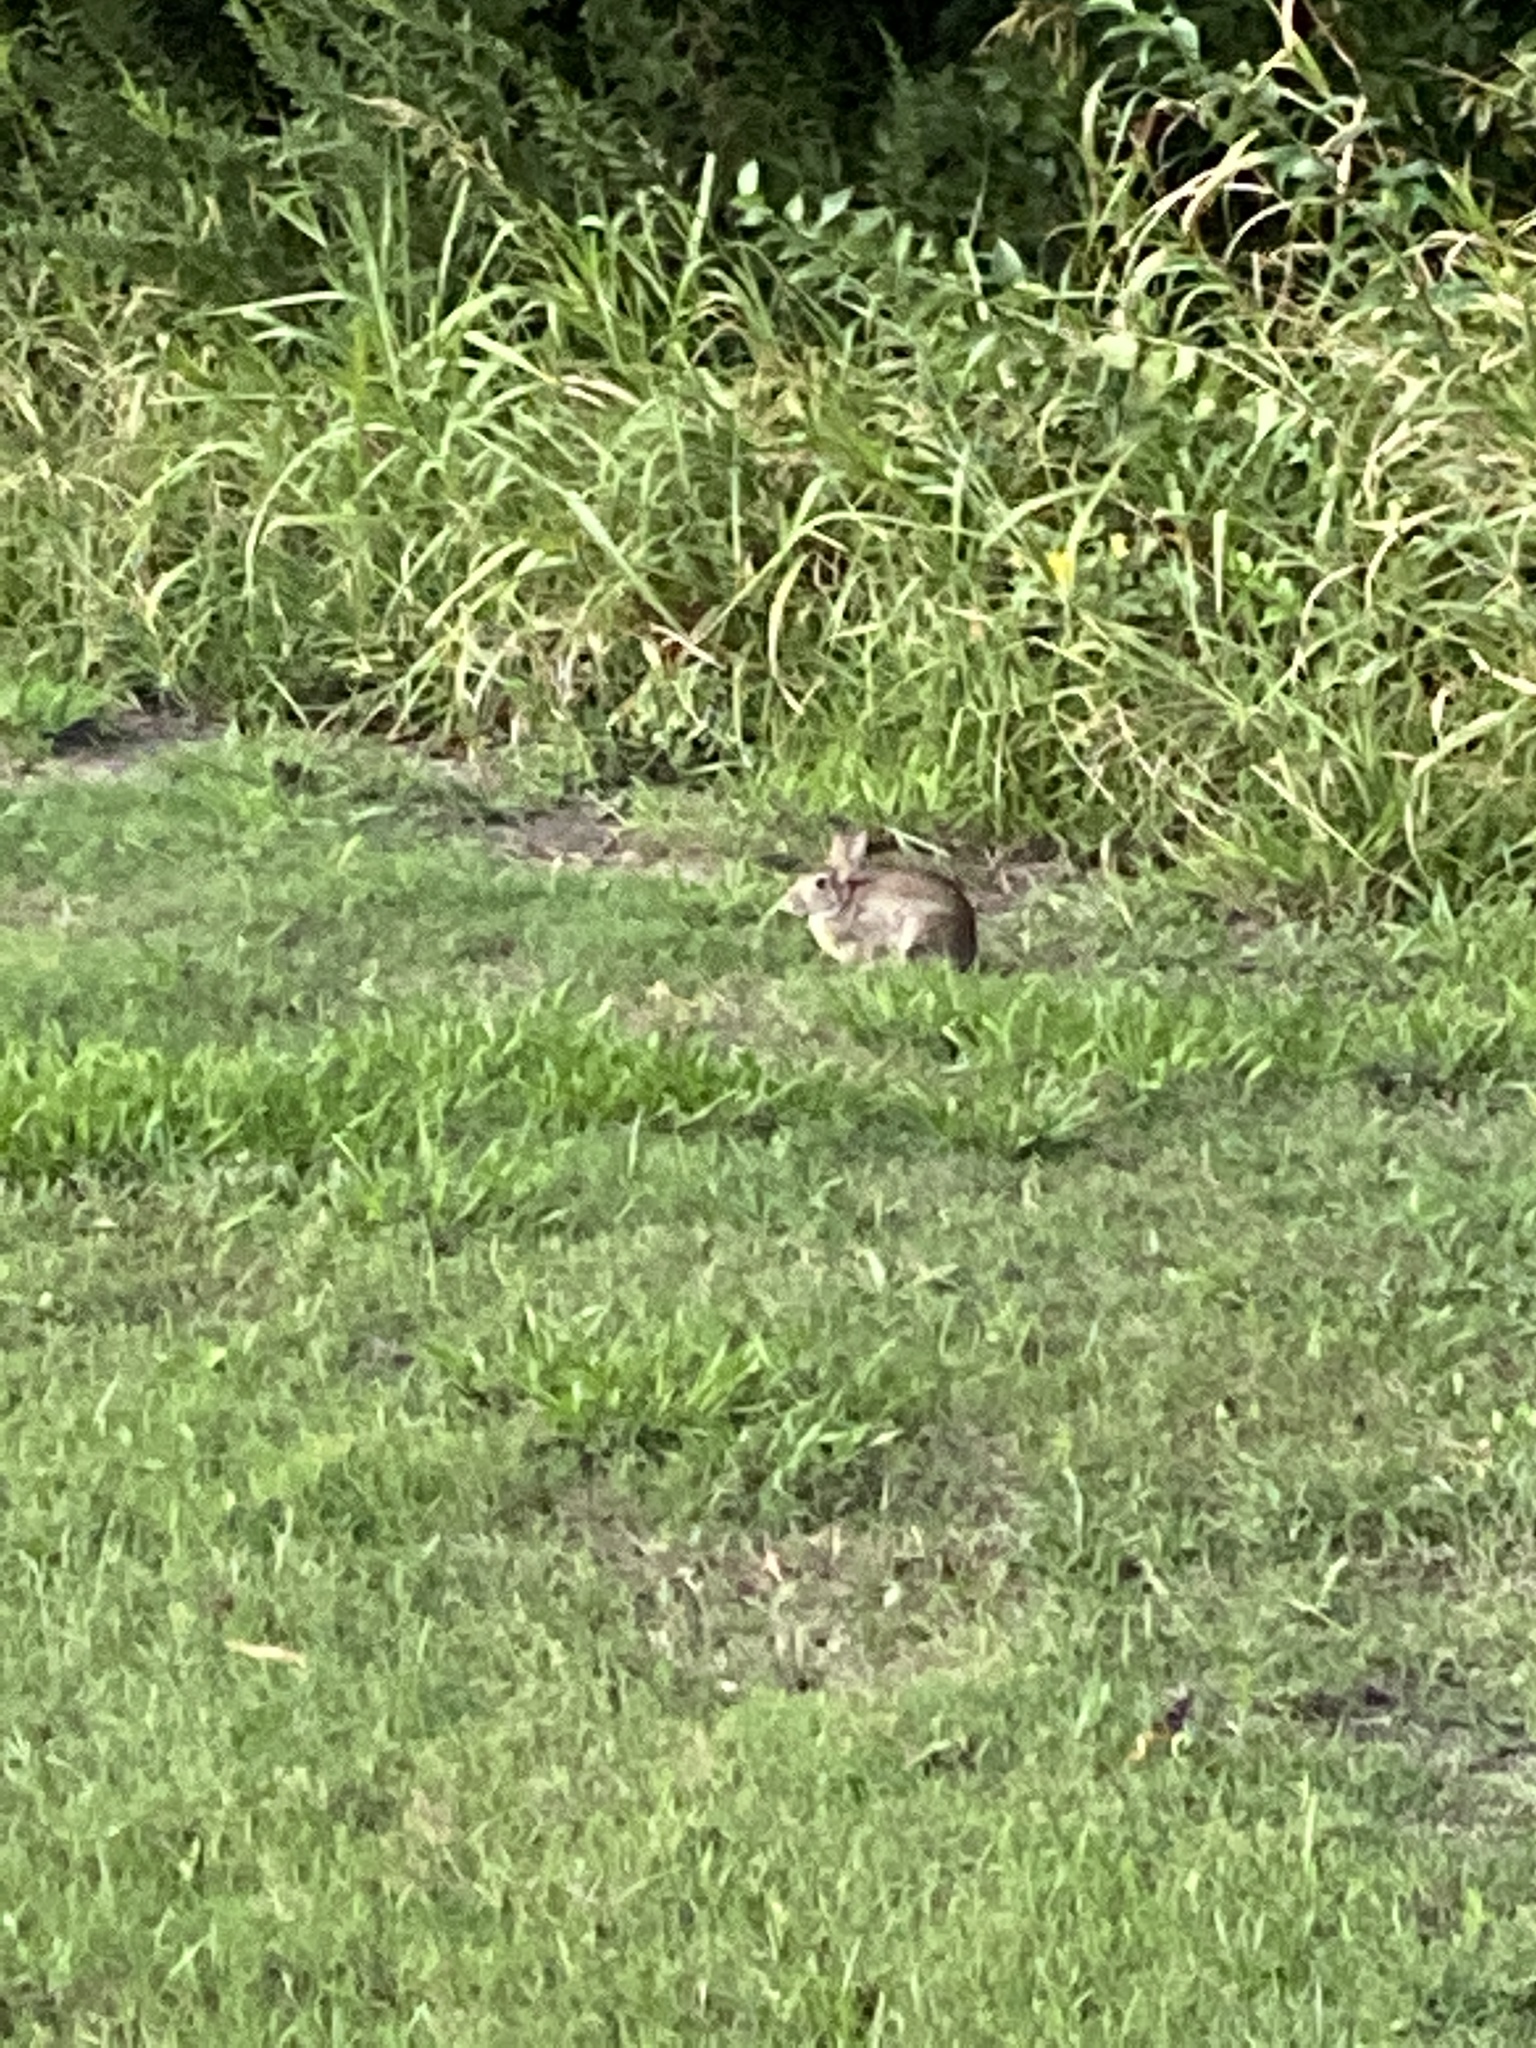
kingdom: Animalia
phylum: Chordata
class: Mammalia
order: Lagomorpha
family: Leporidae
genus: Sylvilagus
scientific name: Sylvilagus floridanus
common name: Eastern cottontail
